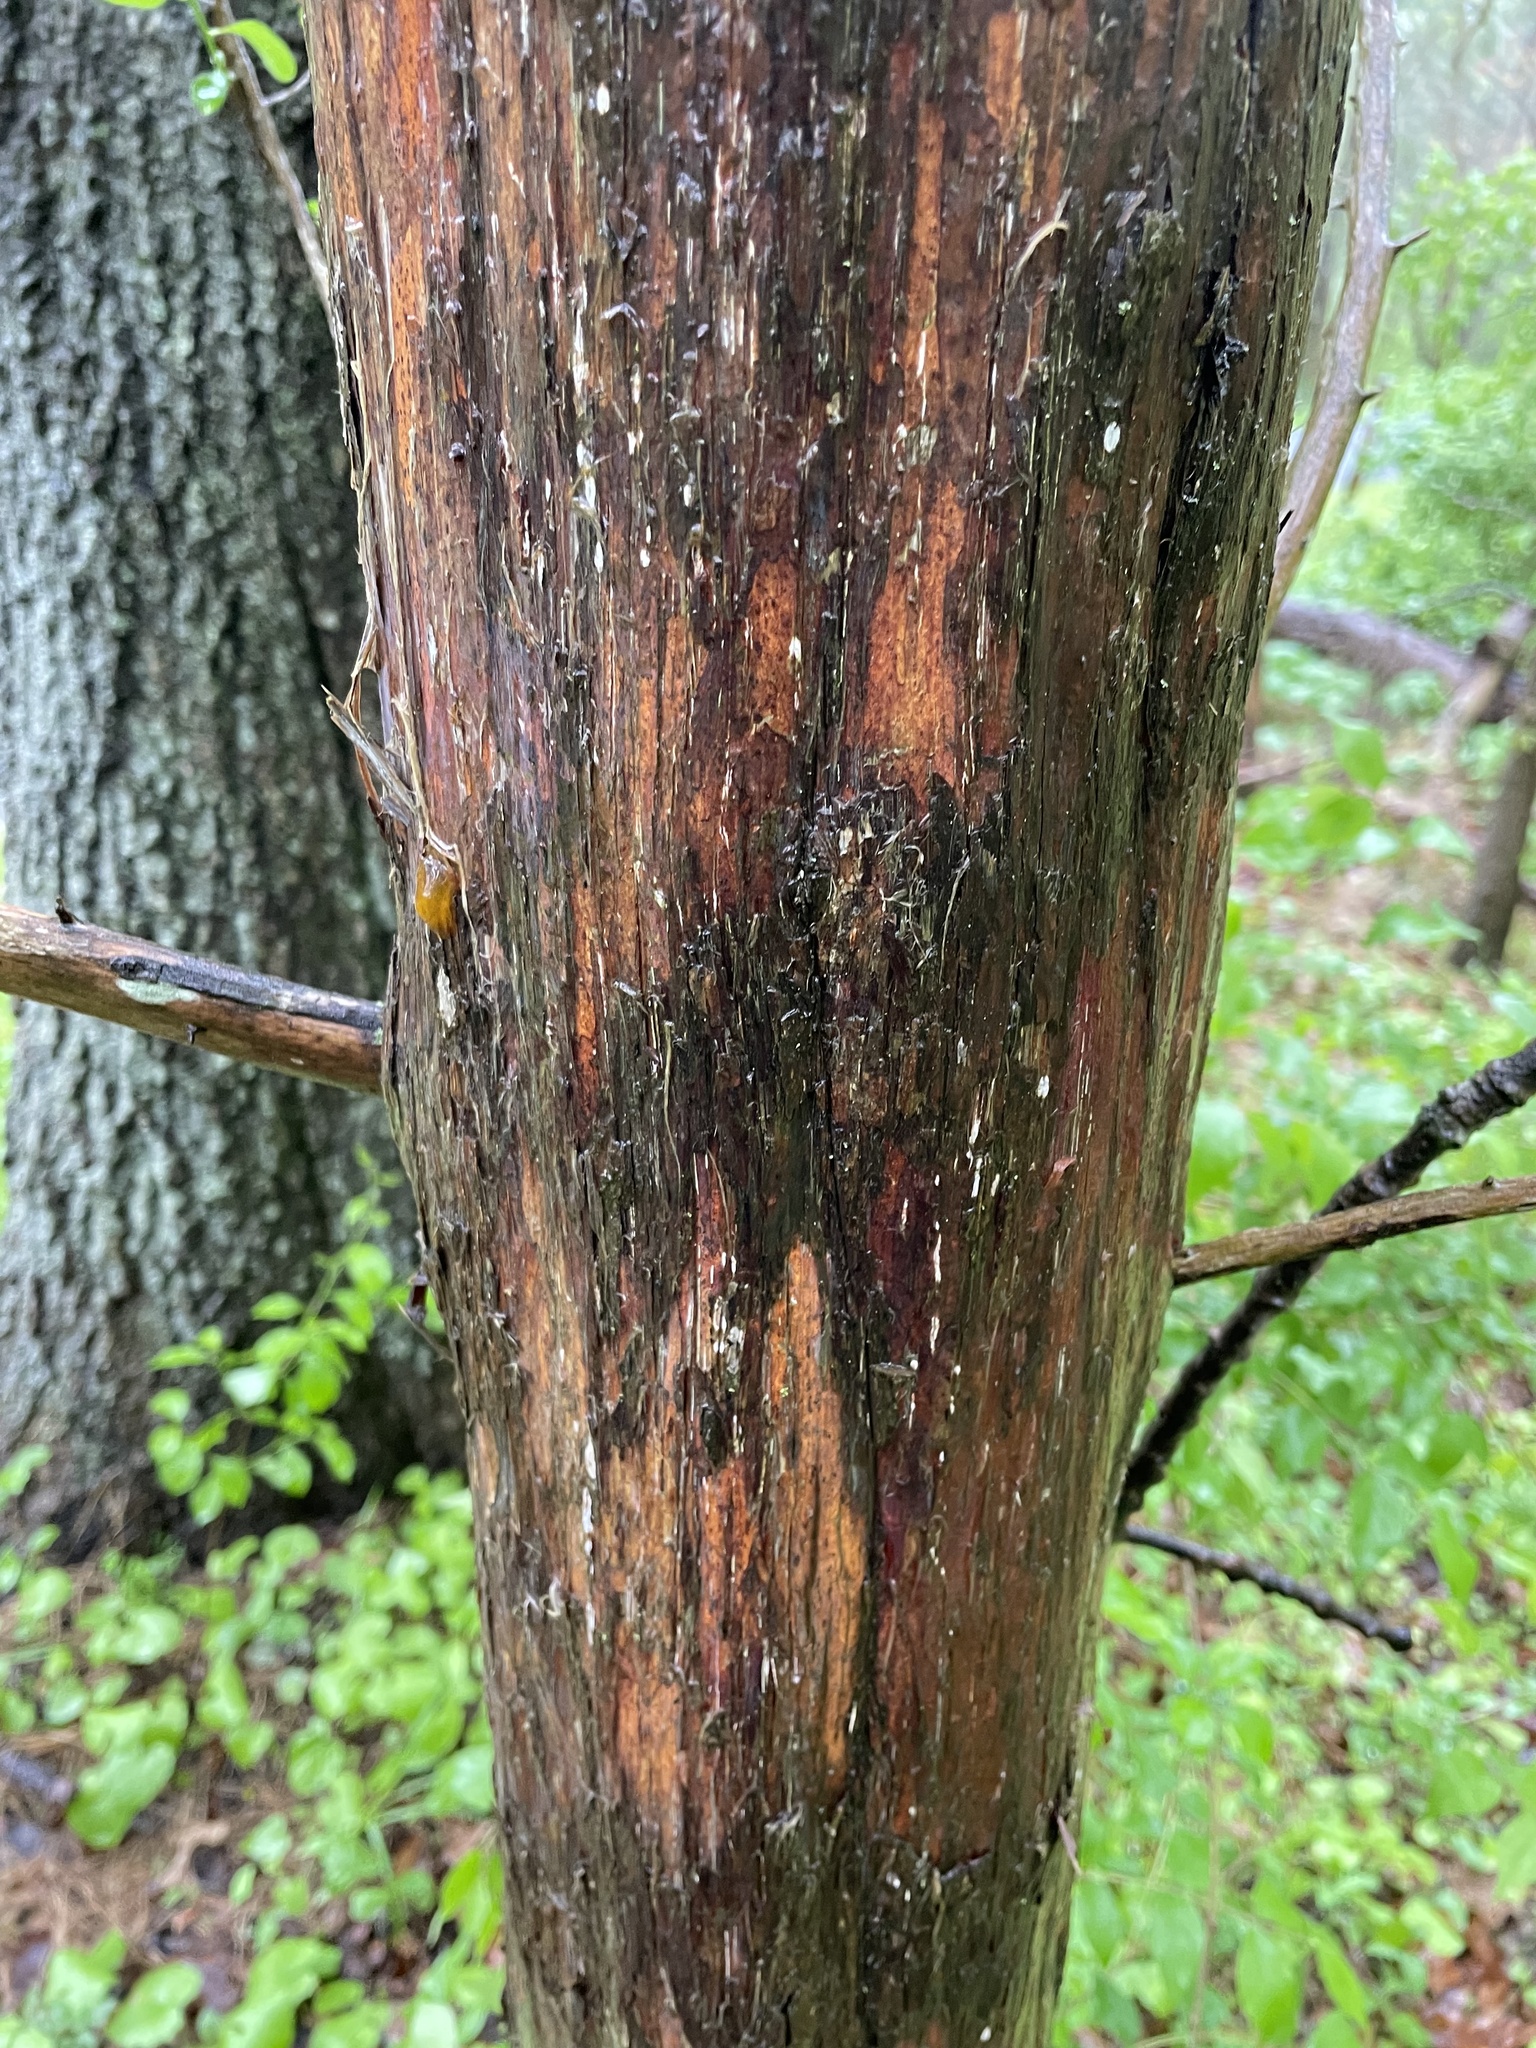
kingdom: Plantae
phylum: Tracheophyta
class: Pinopsida
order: Pinales
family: Cupressaceae
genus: Juniperus
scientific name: Juniperus virginiana
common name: Red juniper
